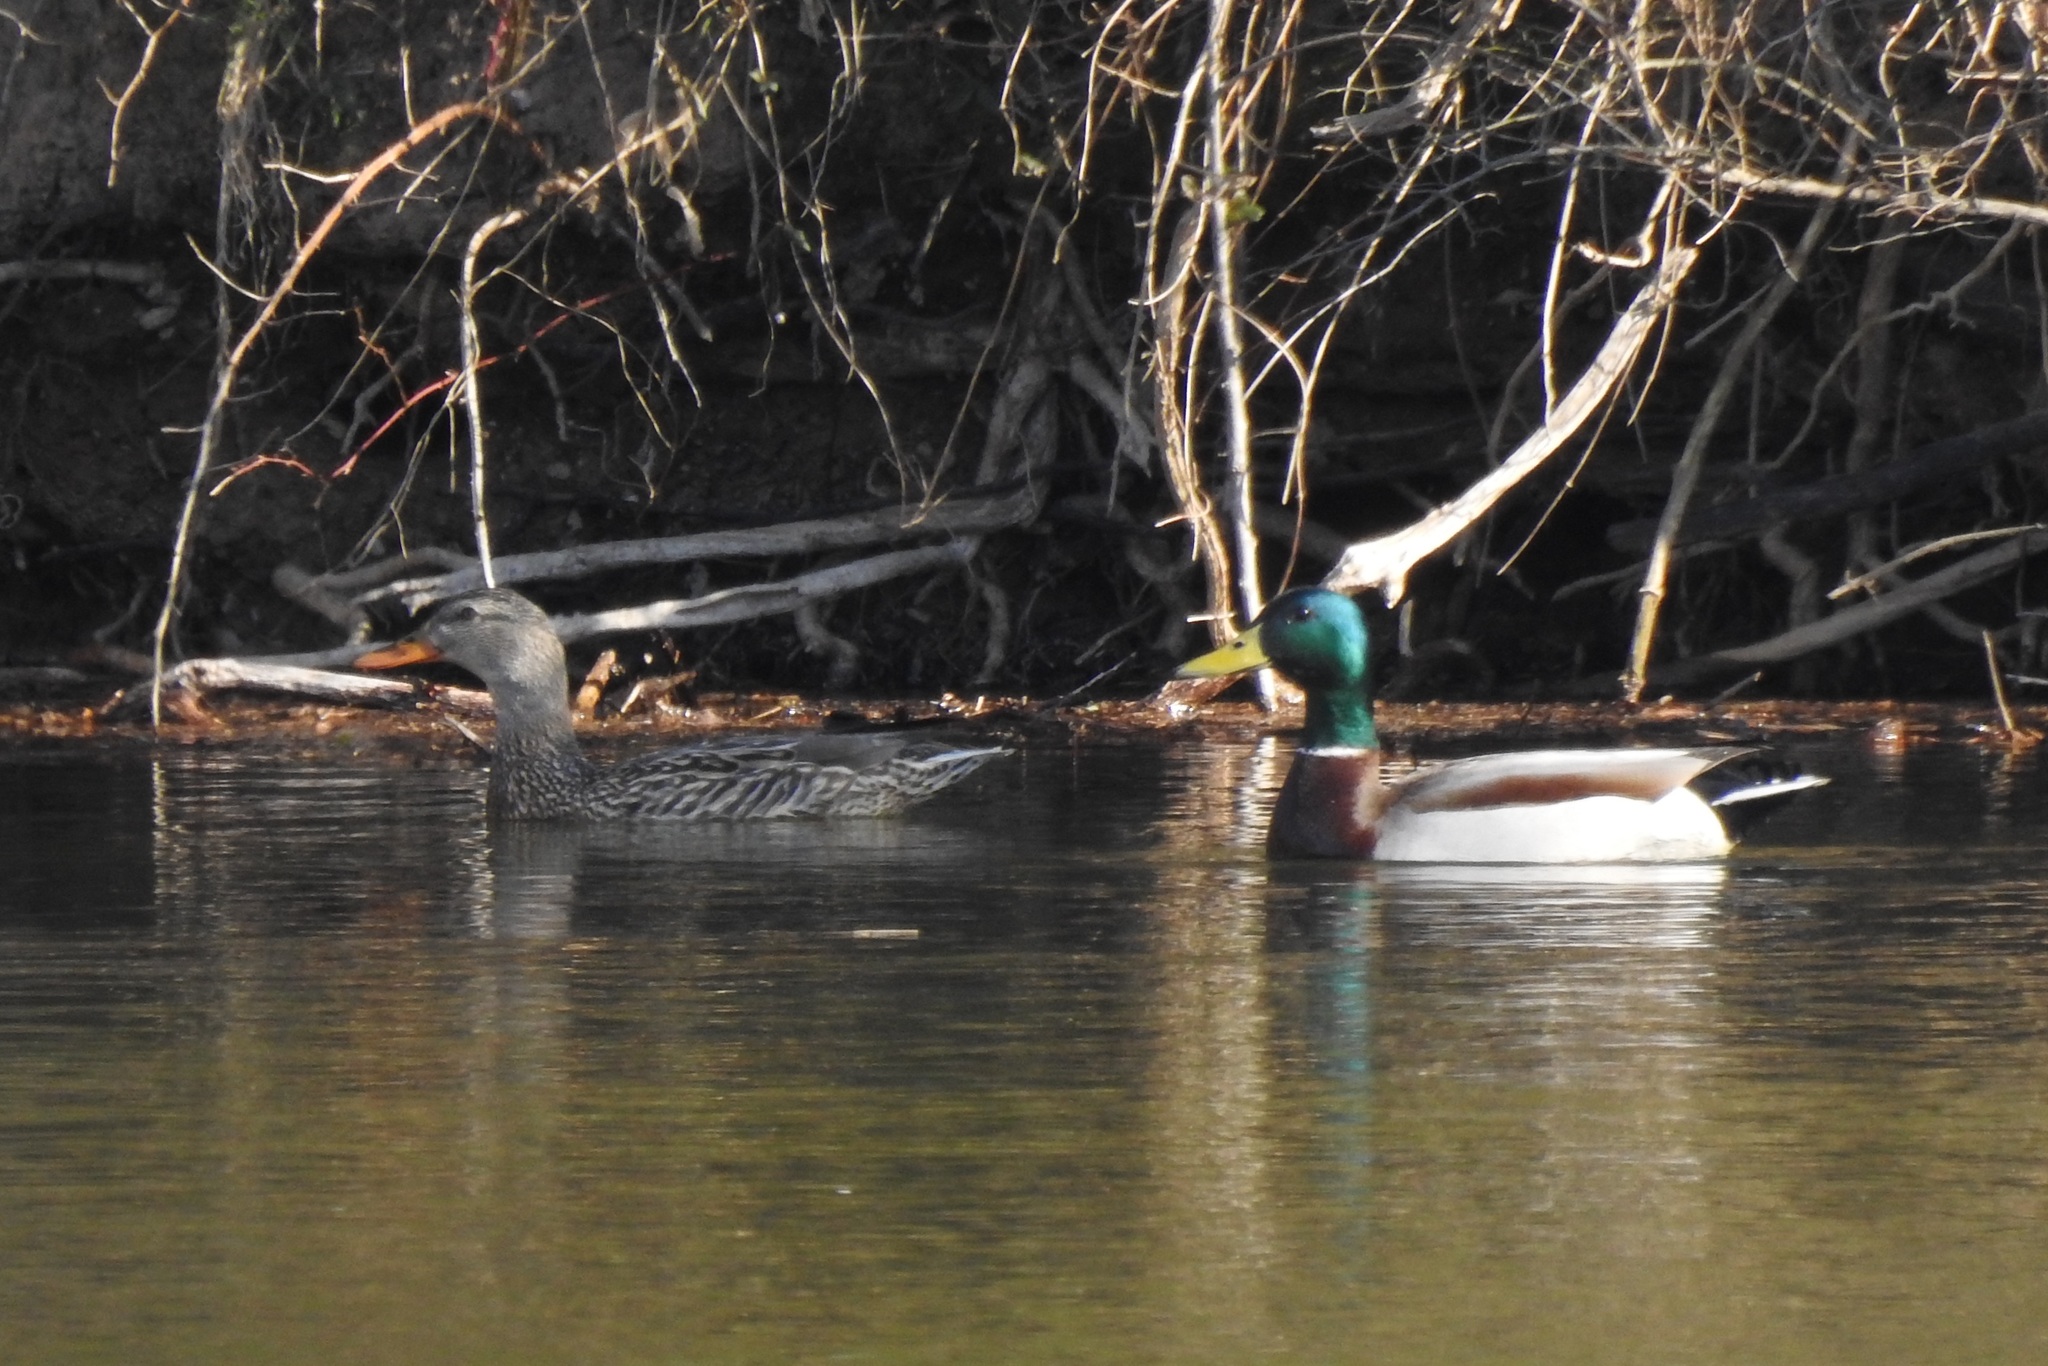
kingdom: Animalia
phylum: Chordata
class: Aves
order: Anseriformes
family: Anatidae
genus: Anas
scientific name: Anas platyrhynchos
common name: Mallard
